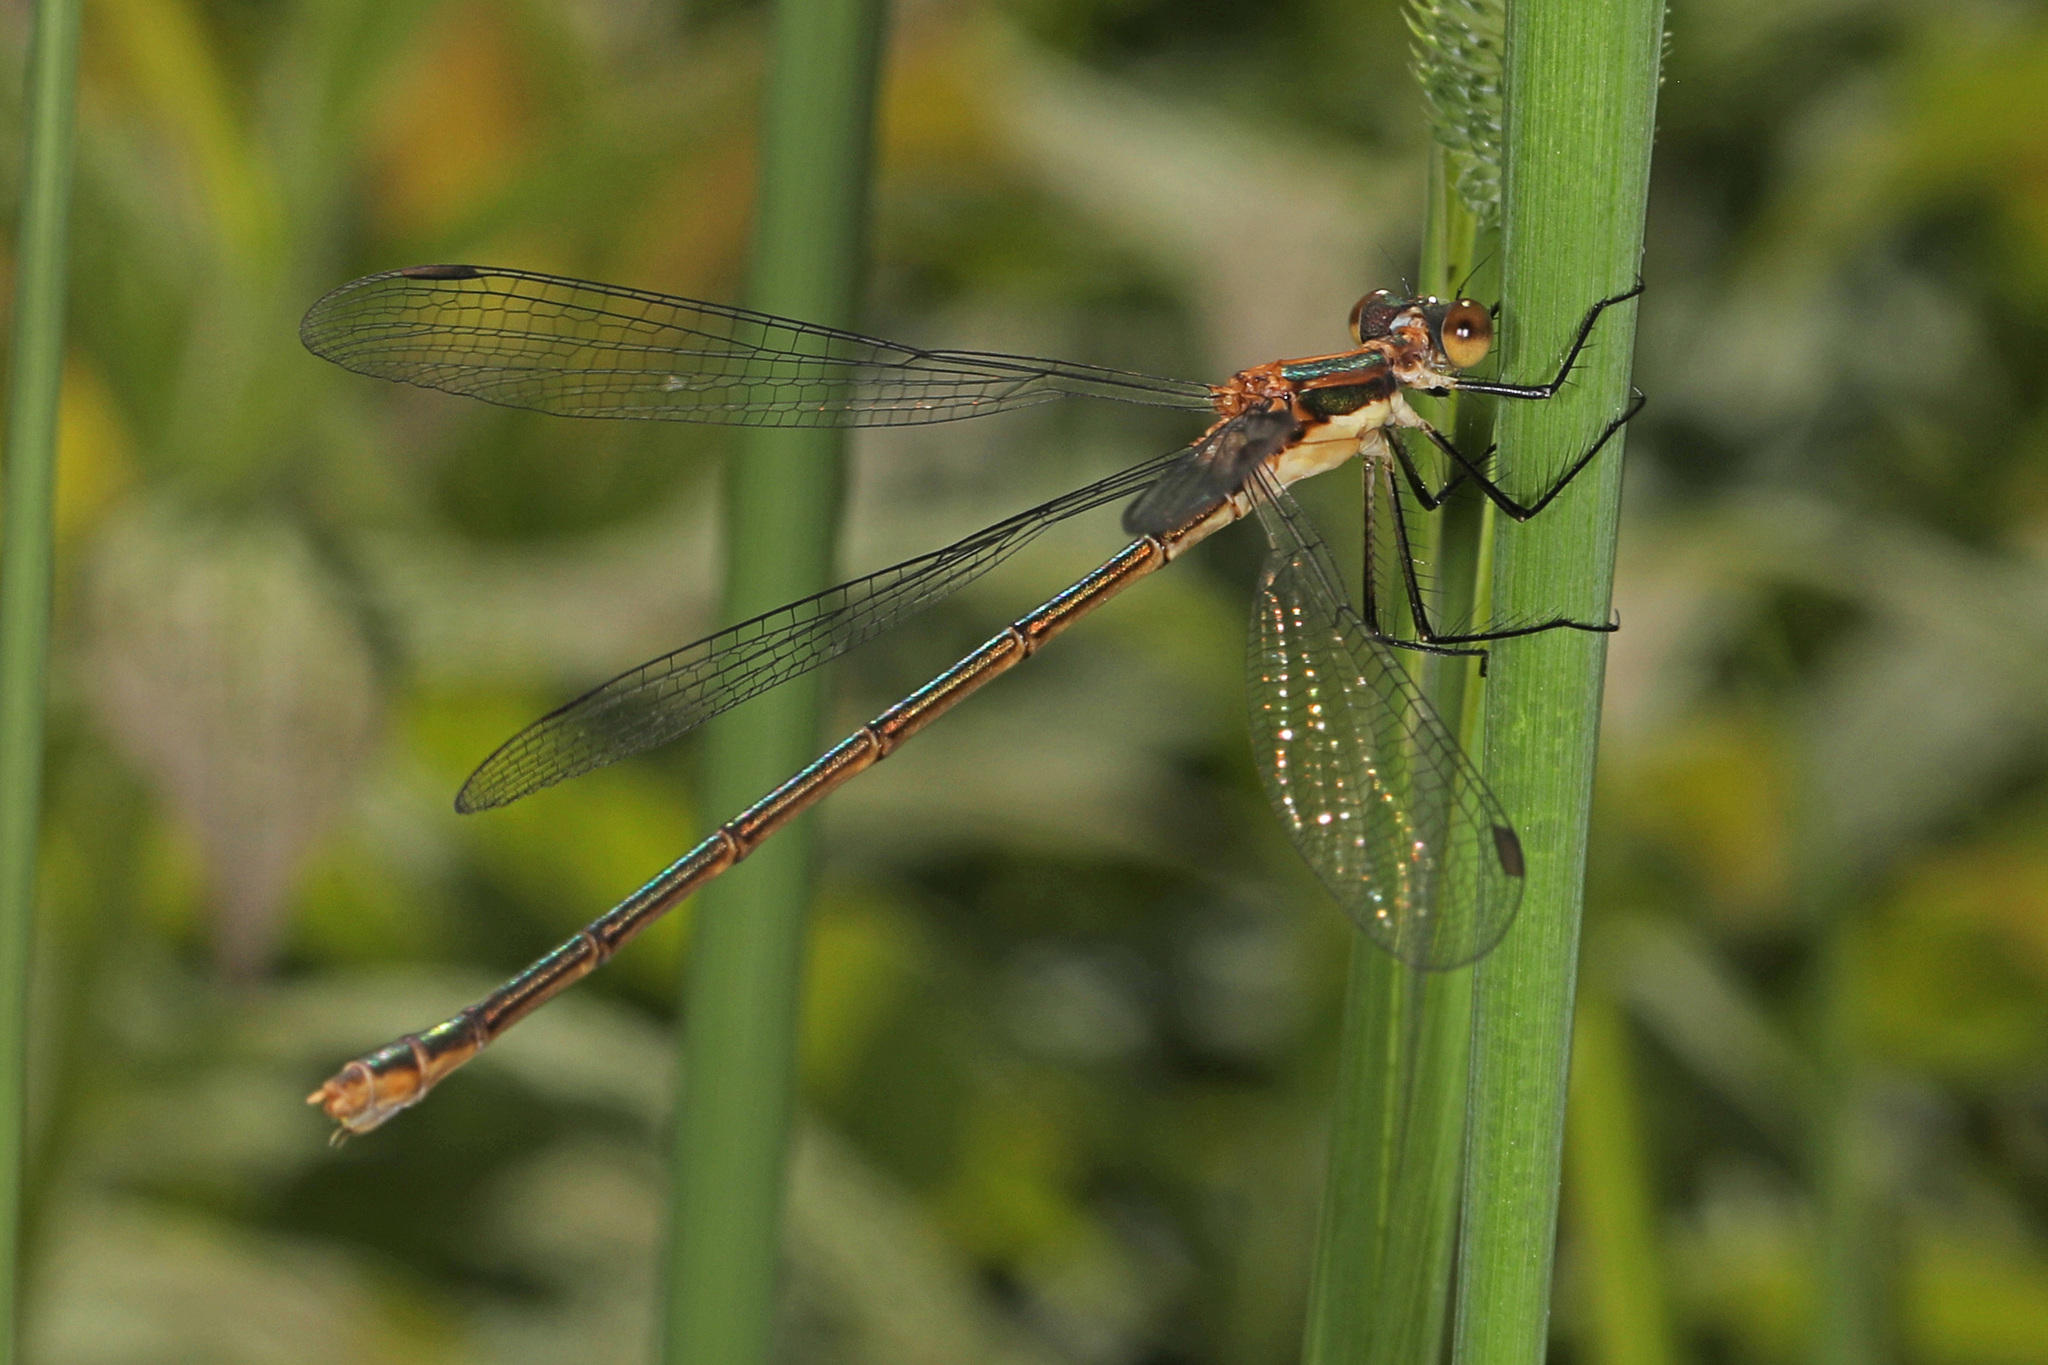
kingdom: Animalia
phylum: Arthropoda
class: Insecta
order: Odonata
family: Lestidae
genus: Lestes
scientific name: Lestes vigilax
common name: Swamp spreadwing
